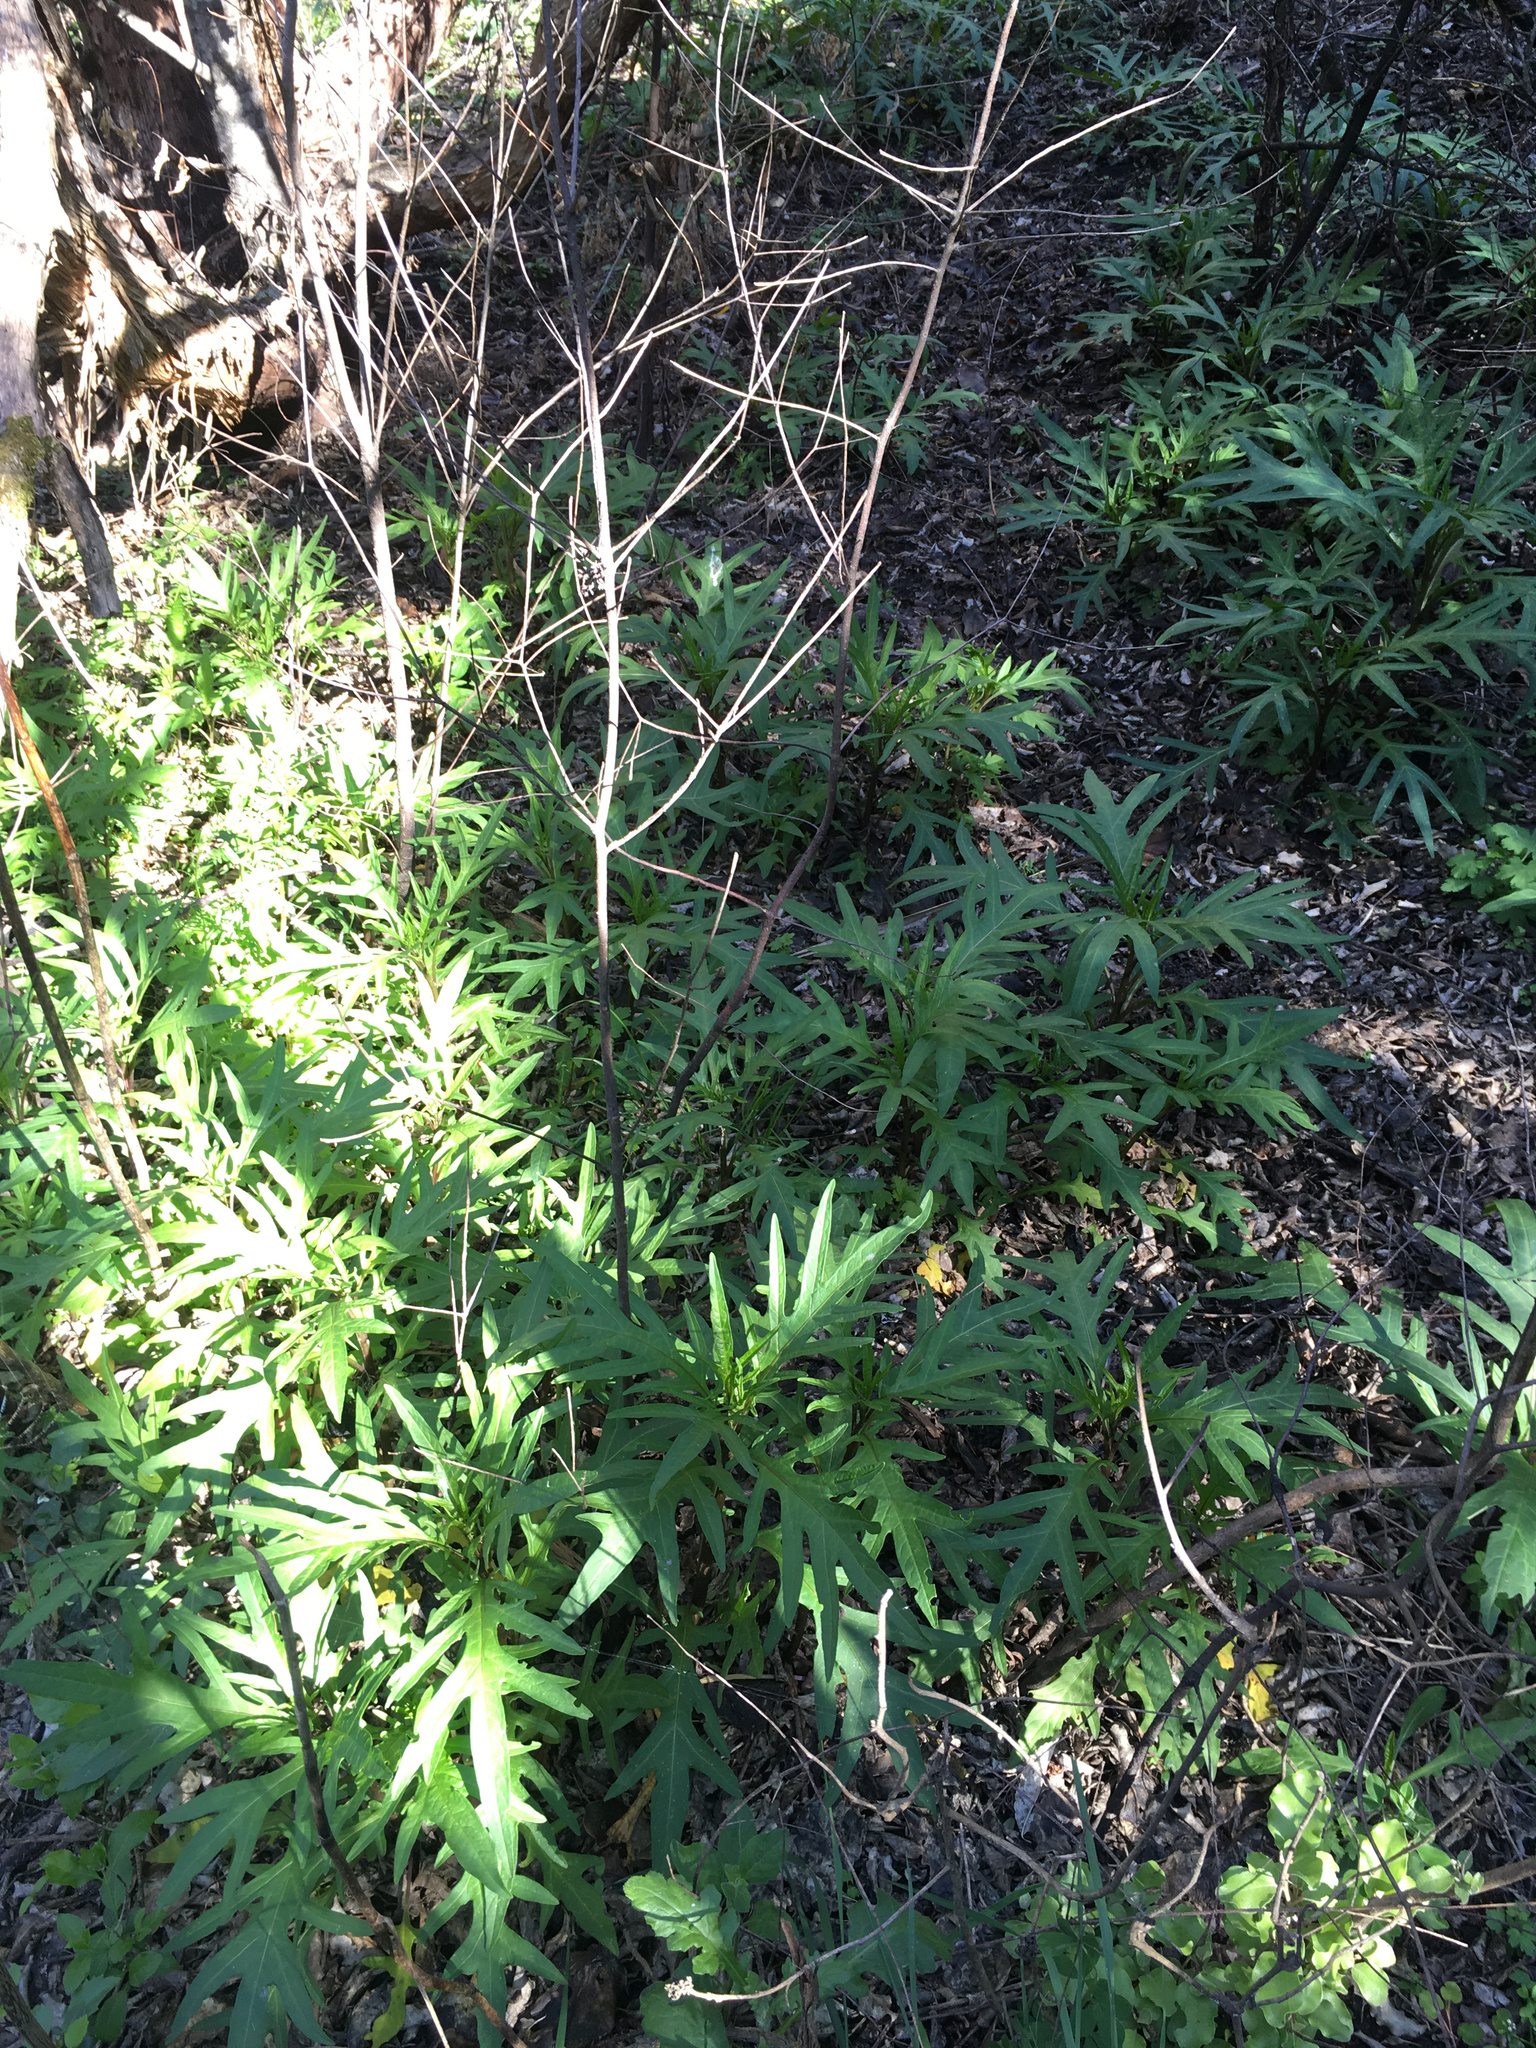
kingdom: Plantae
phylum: Tracheophyta
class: Magnoliopsida
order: Solanales
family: Solanaceae
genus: Solanum
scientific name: Solanum
